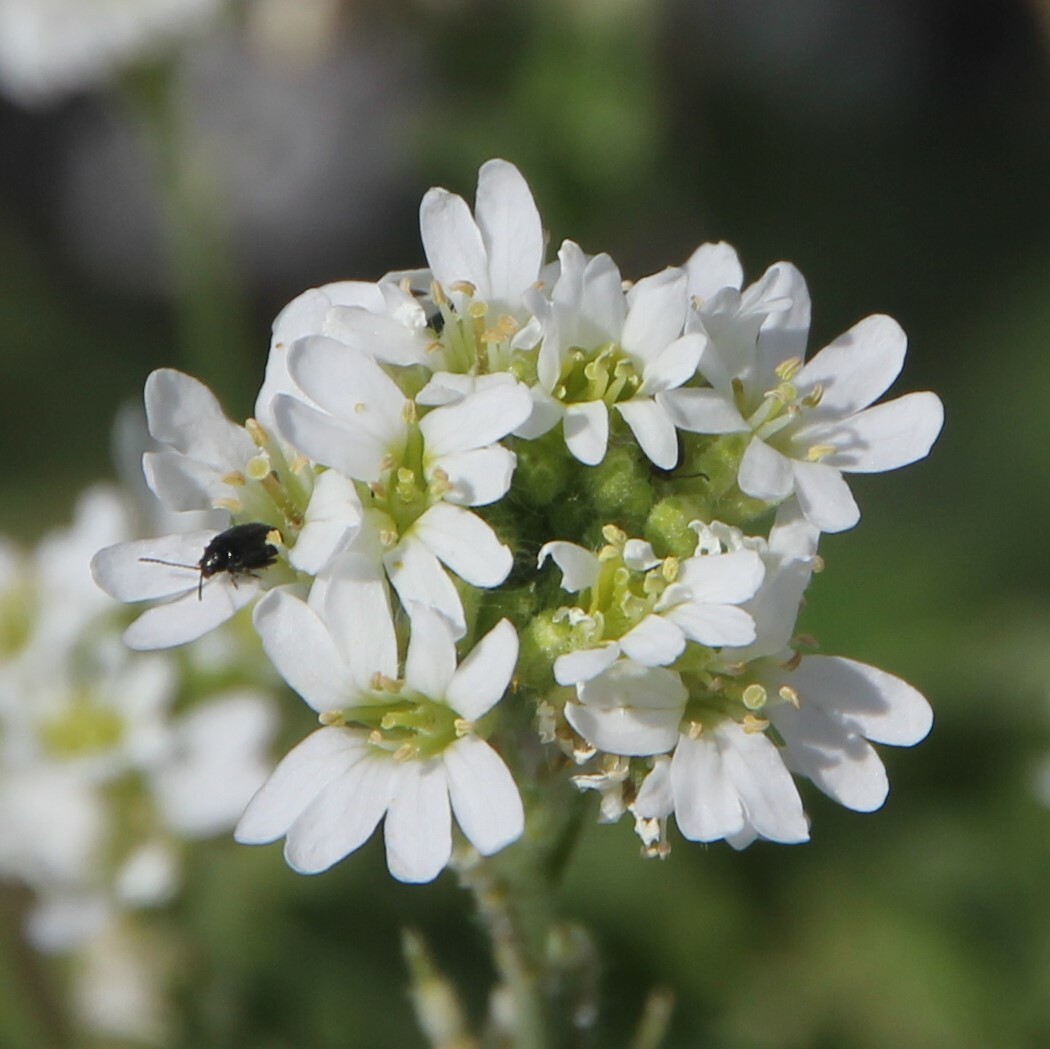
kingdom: Plantae
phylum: Tracheophyta
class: Magnoliopsida
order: Brassicales
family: Brassicaceae
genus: Berteroa
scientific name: Berteroa incana
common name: Hoary alison
